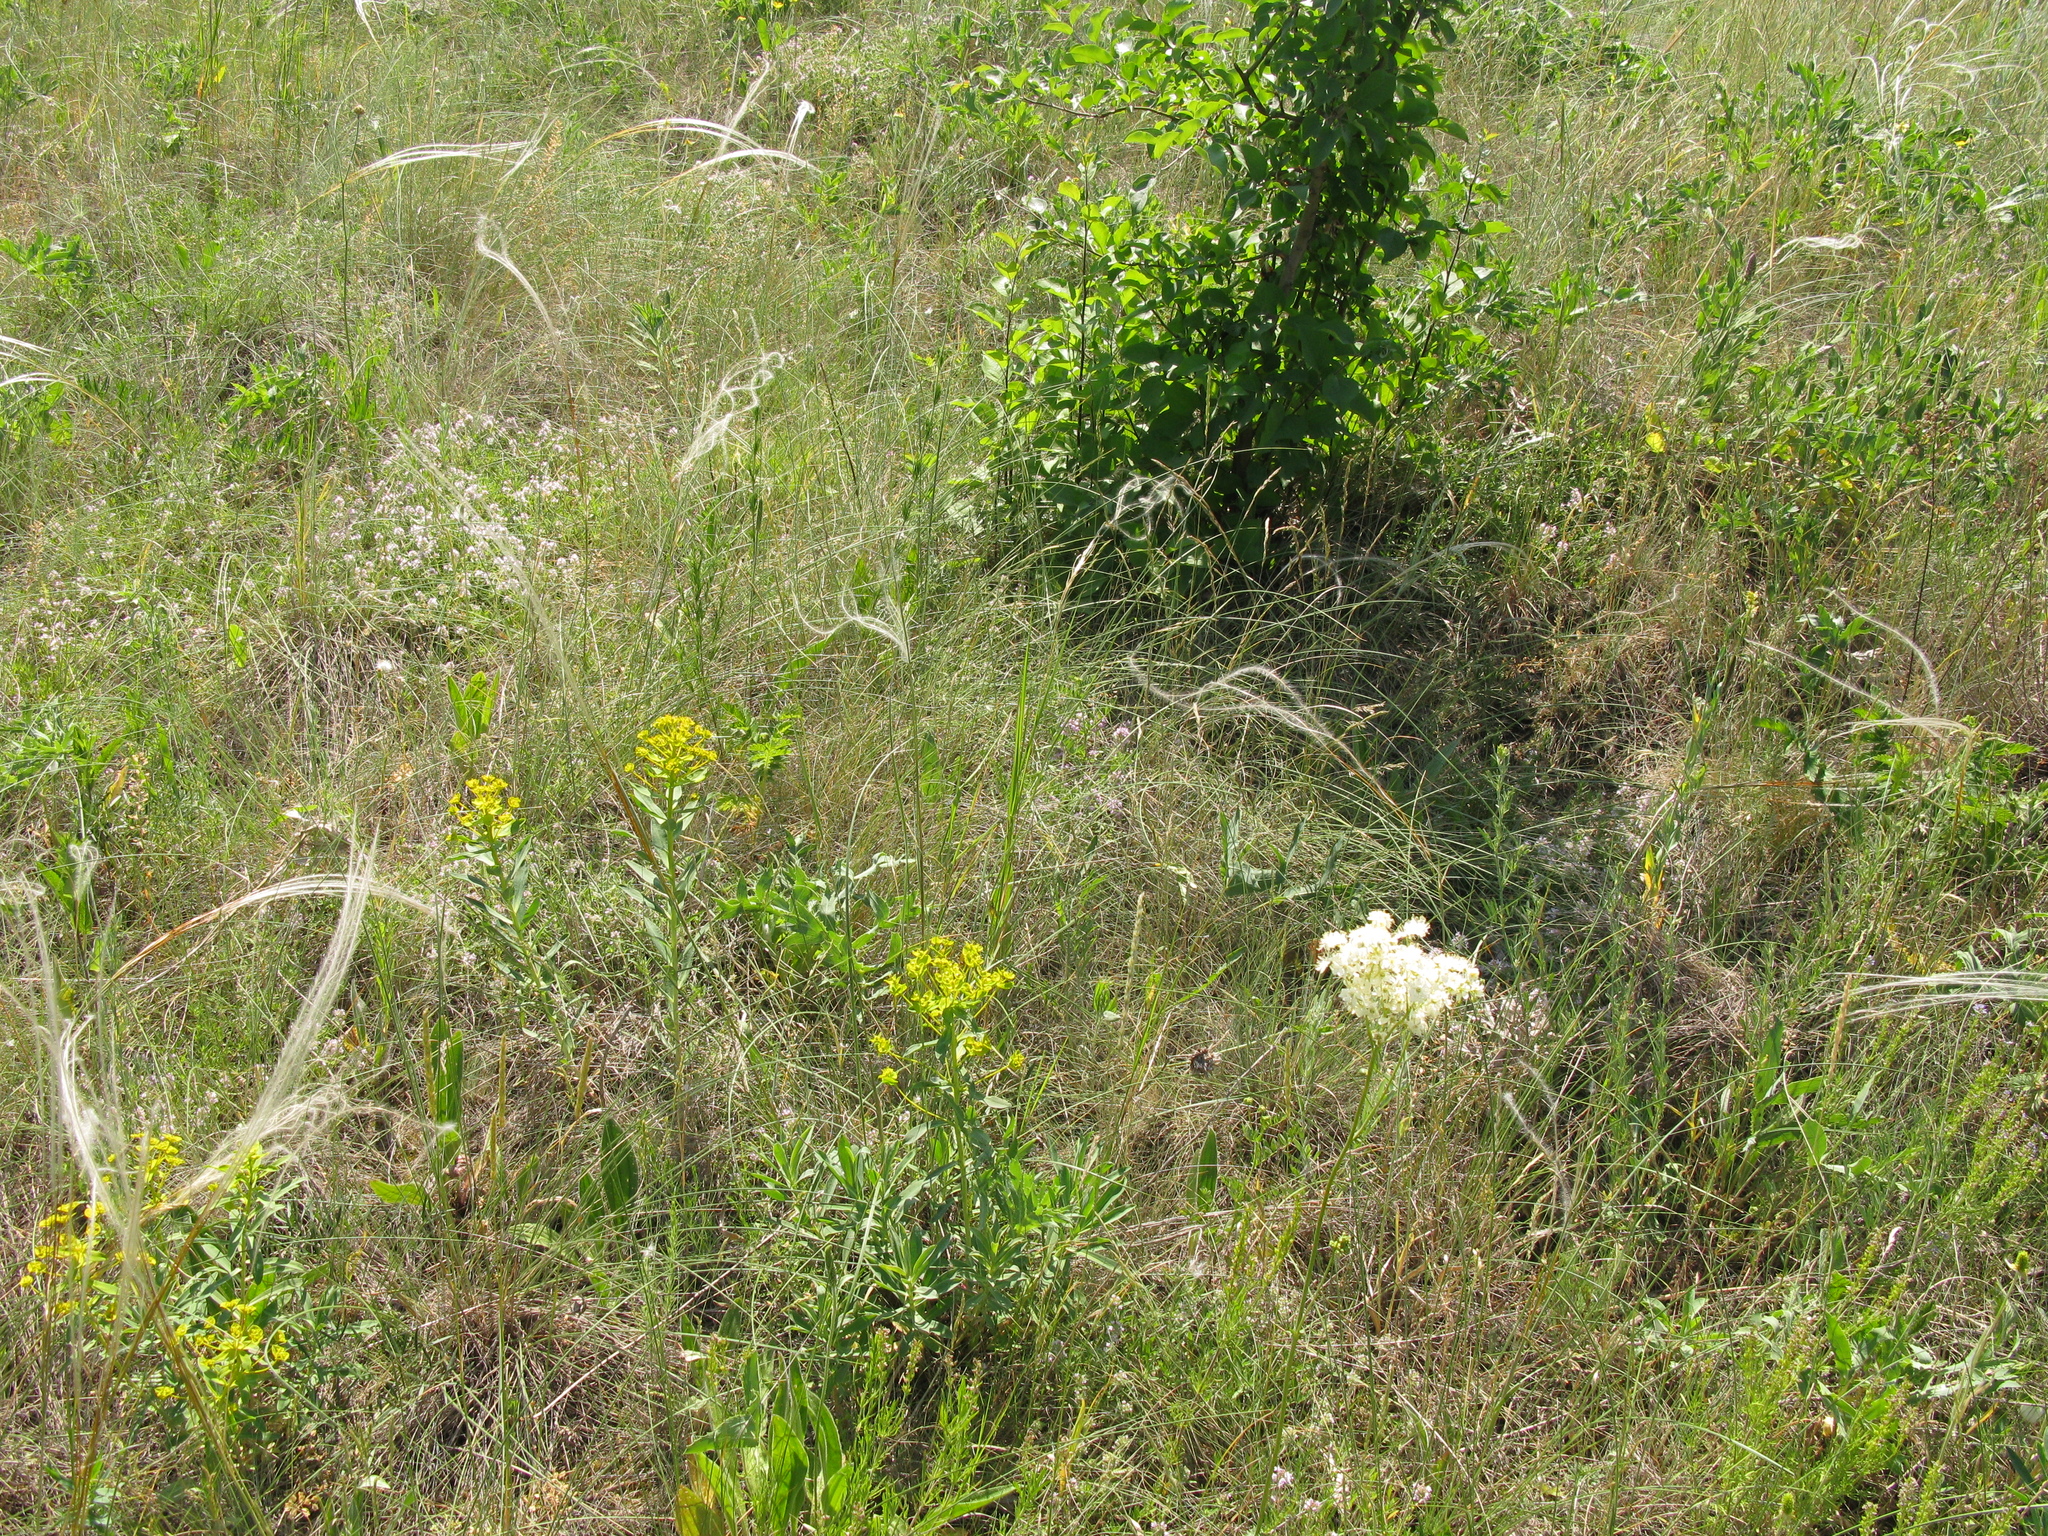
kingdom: Plantae
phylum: Tracheophyta
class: Magnoliopsida
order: Rosales
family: Rosaceae
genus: Filipendula
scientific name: Filipendula vulgaris
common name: Dropwort
